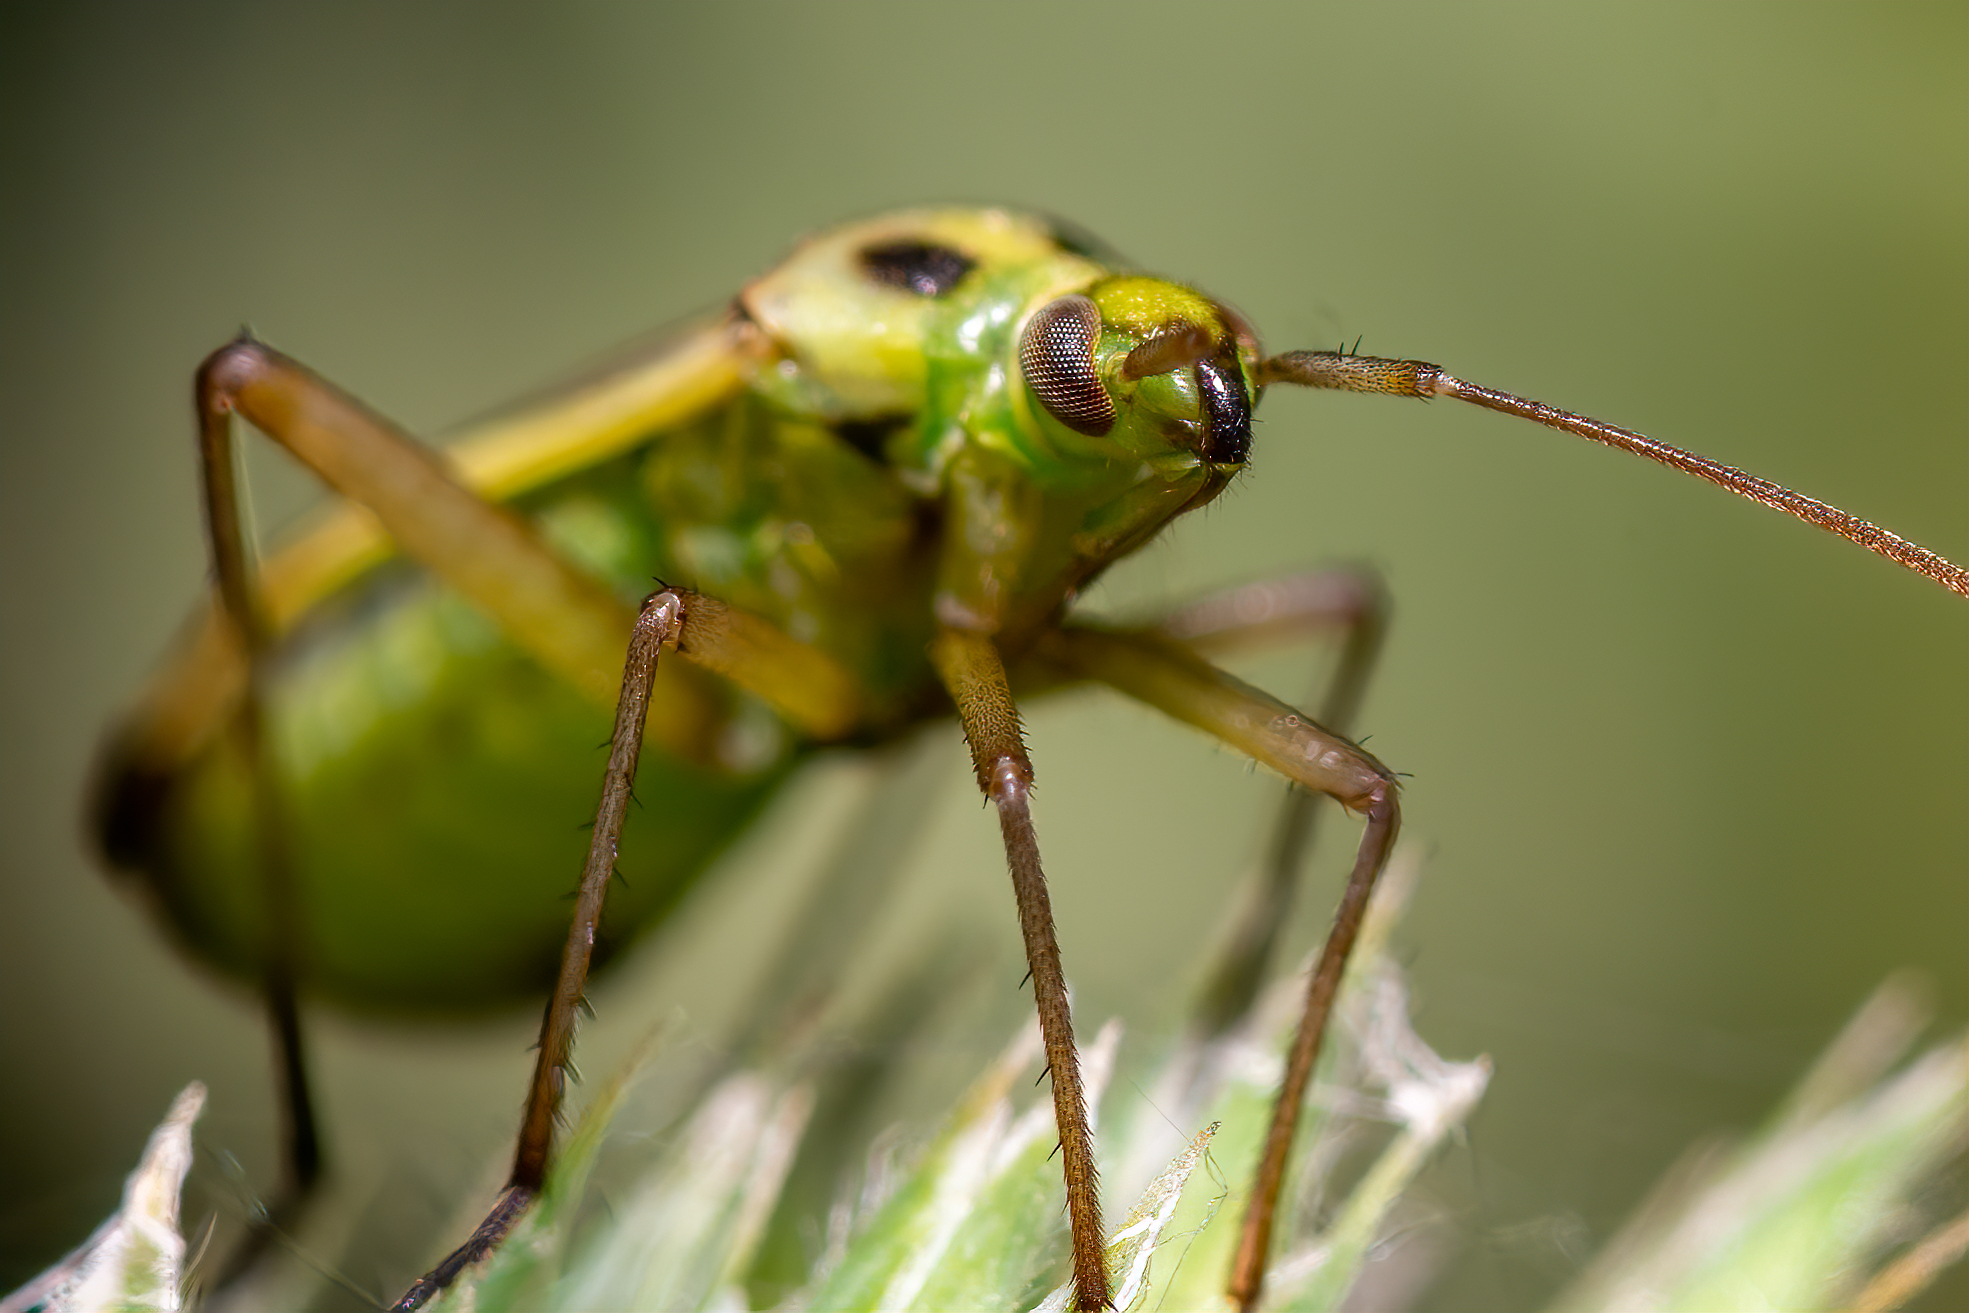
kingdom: Animalia
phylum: Arthropoda
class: Insecta
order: Hemiptera
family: Miridae
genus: Stenotus
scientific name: Stenotus binotatus
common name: Plant bug
